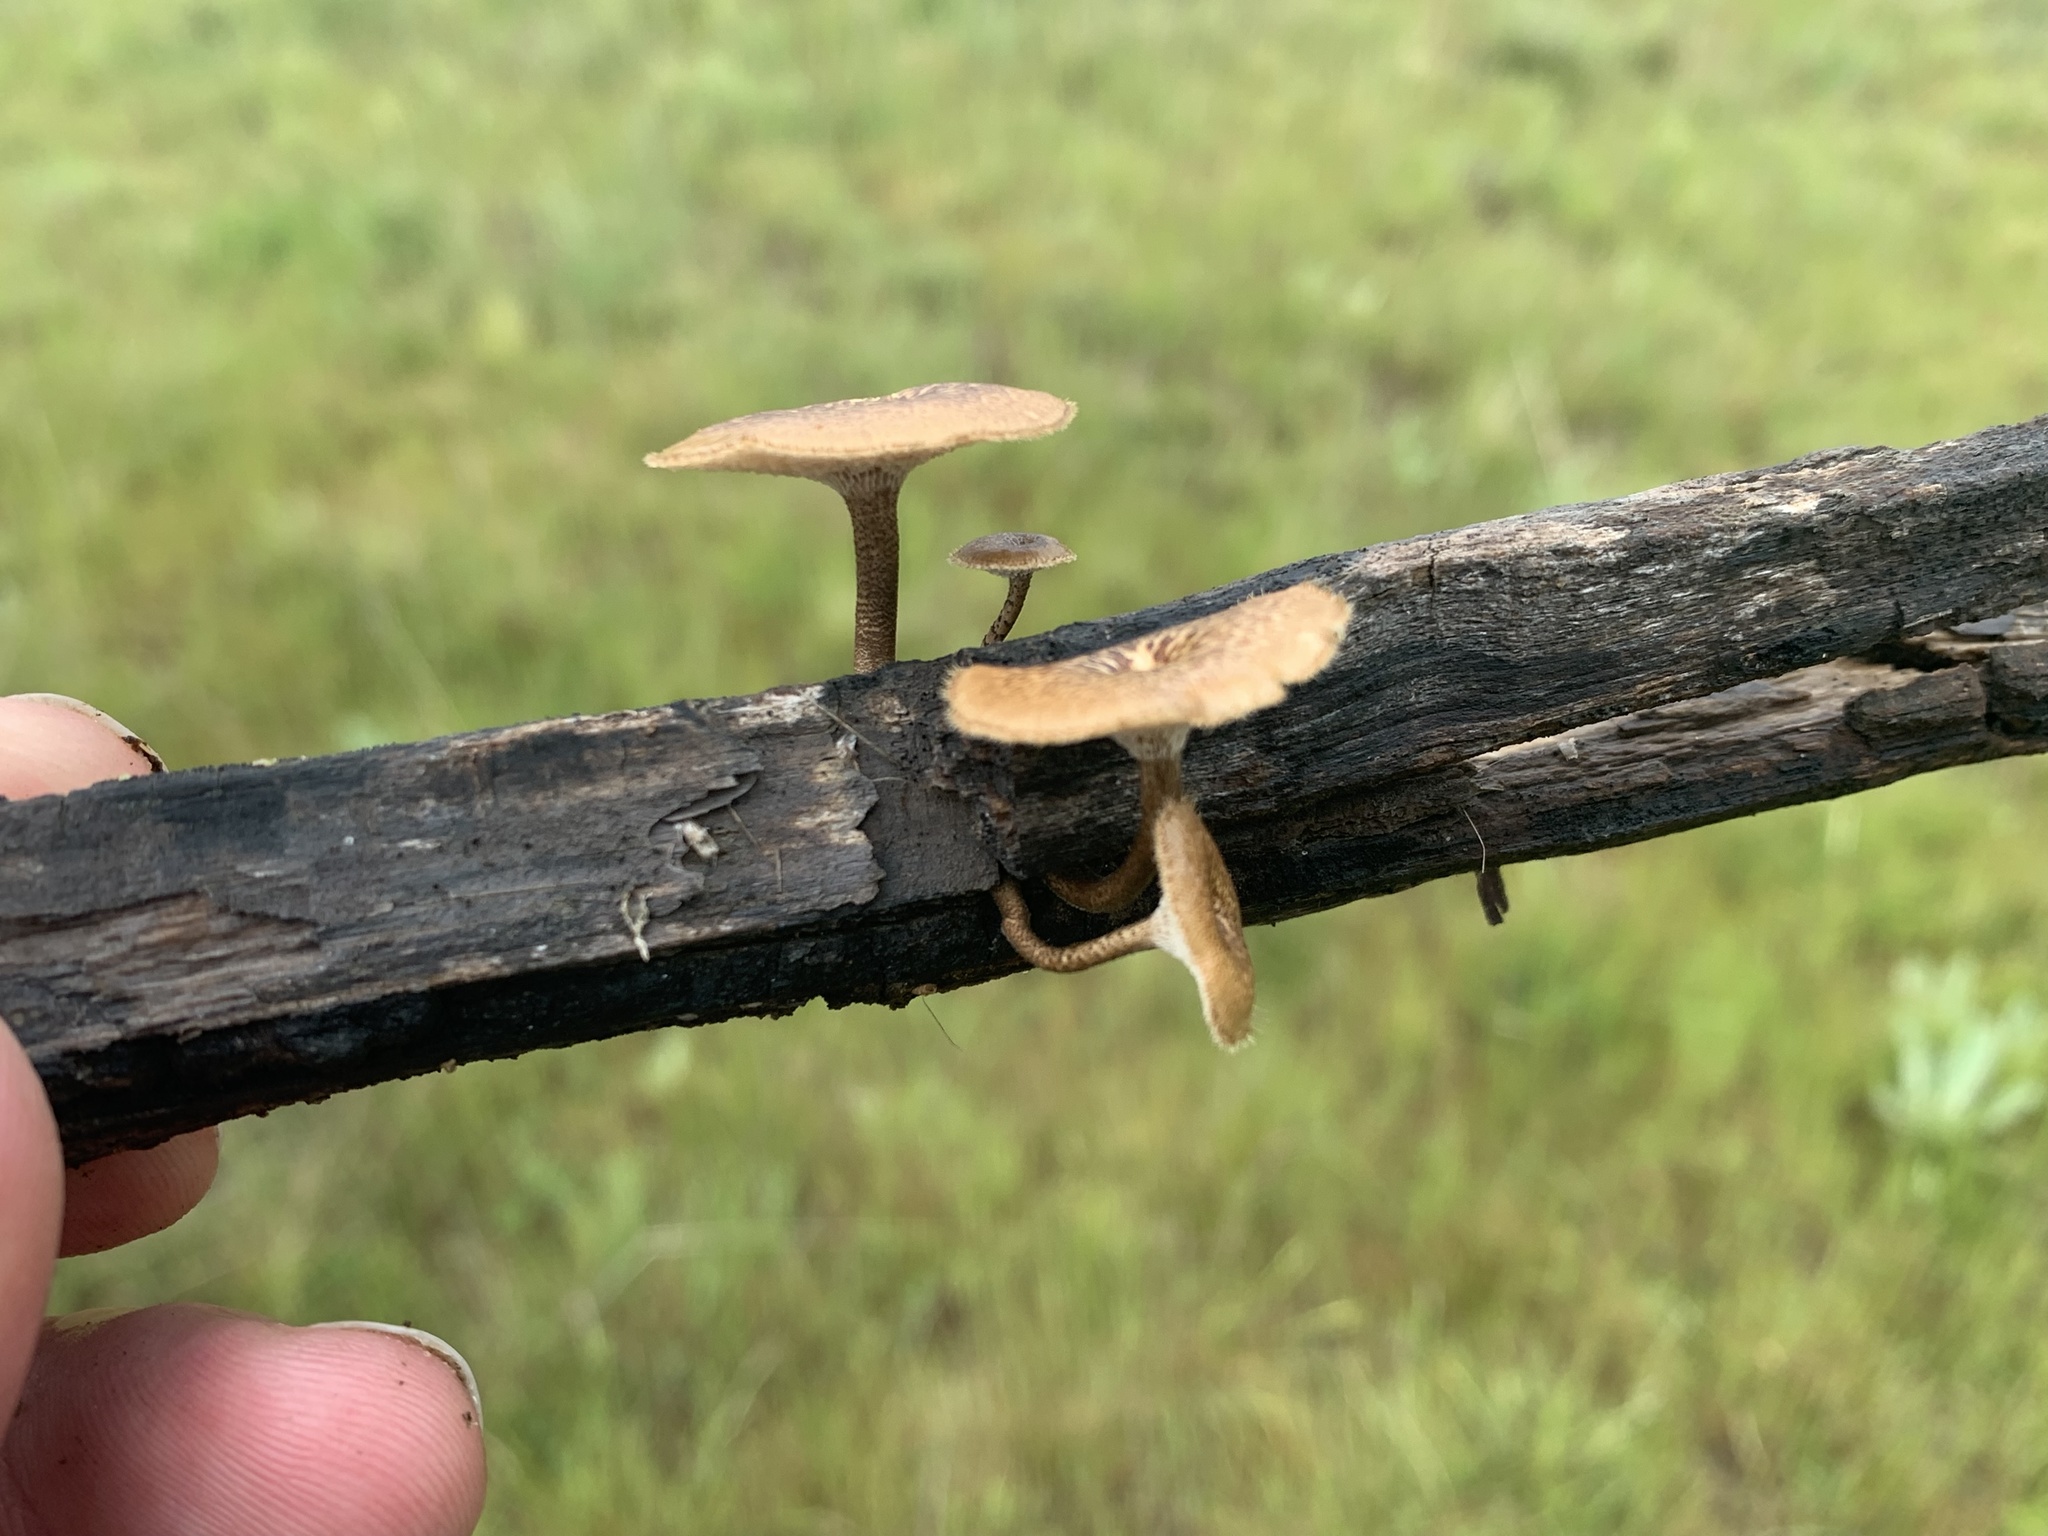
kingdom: Fungi
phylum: Basidiomycota
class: Agaricomycetes
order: Polyporales
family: Polyporaceae
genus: Lentinus
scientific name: Lentinus arcularius
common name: Spring polypore
